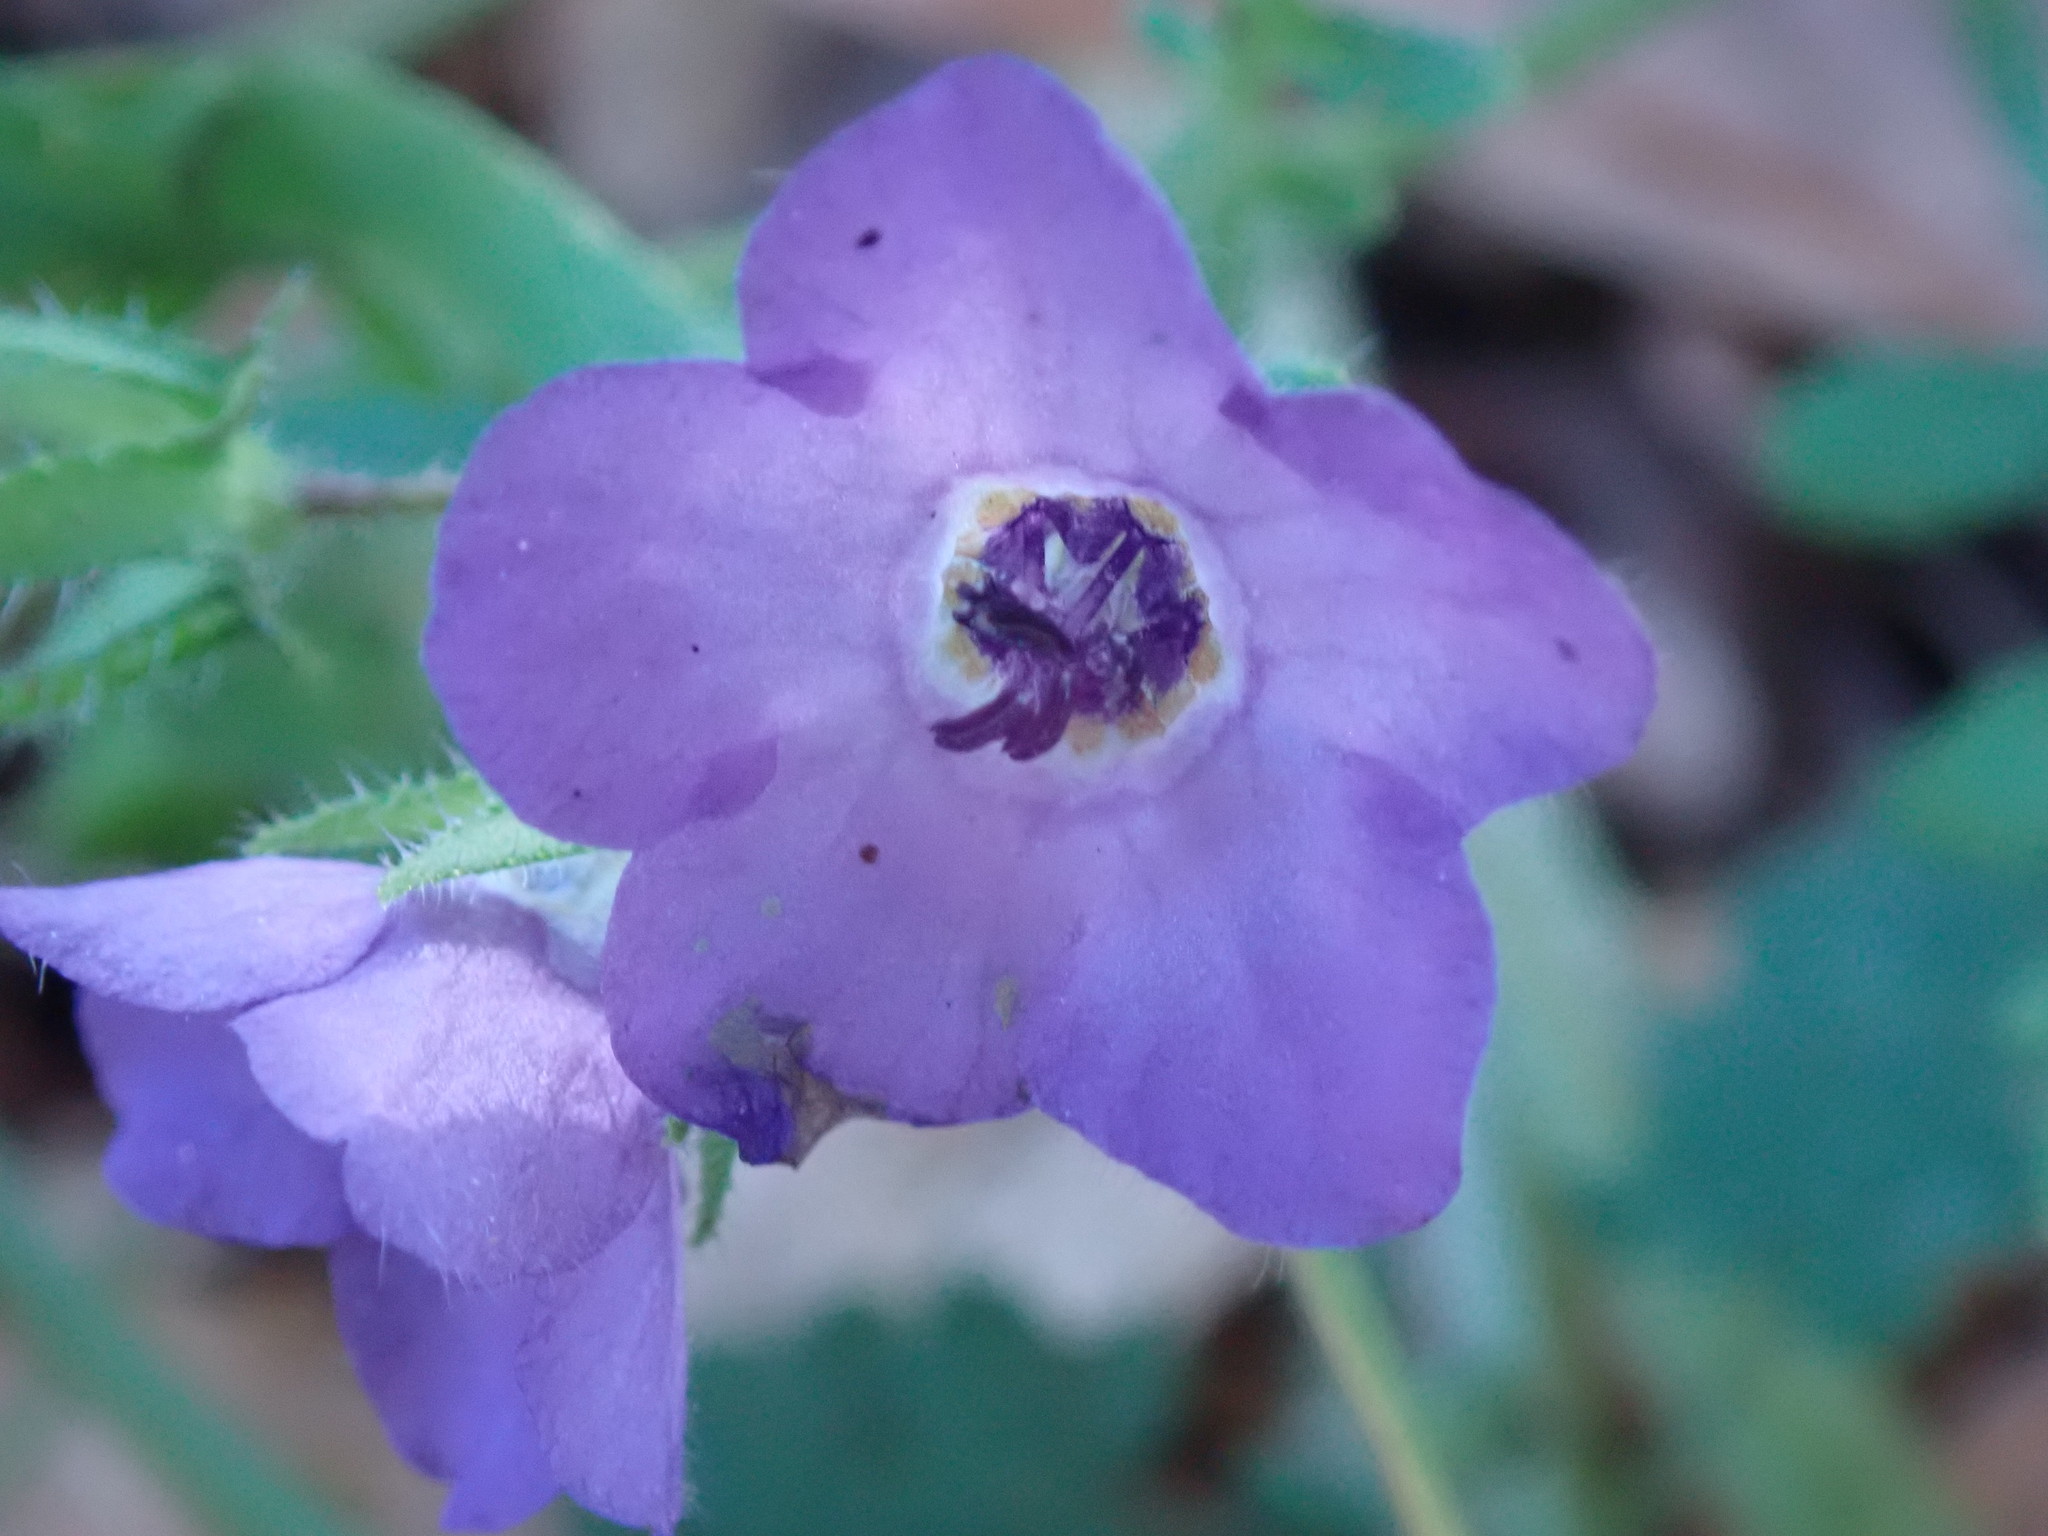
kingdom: Plantae
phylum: Tracheophyta
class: Magnoliopsida
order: Boraginales
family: Hydrophyllaceae
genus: Pholistoma
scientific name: Pholistoma auritum
